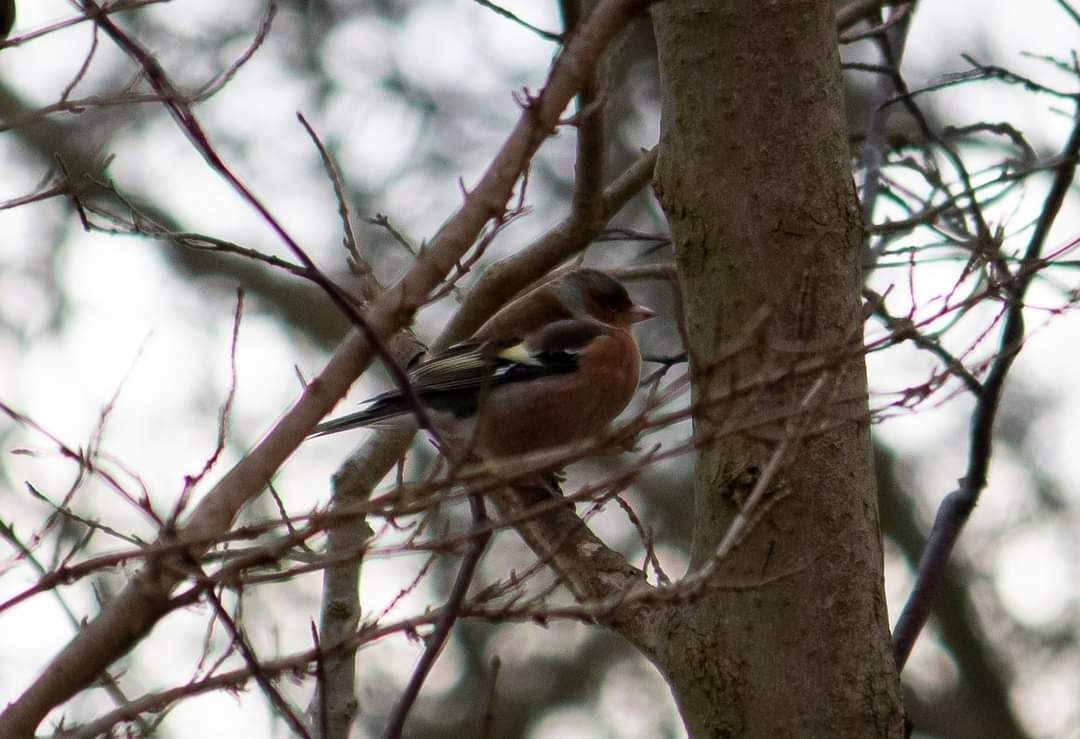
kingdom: Animalia
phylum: Chordata
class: Aves
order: Passeriformes
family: Fringillidae
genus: Fringilla
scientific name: Fringilla coelebs
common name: Common chaffinch
